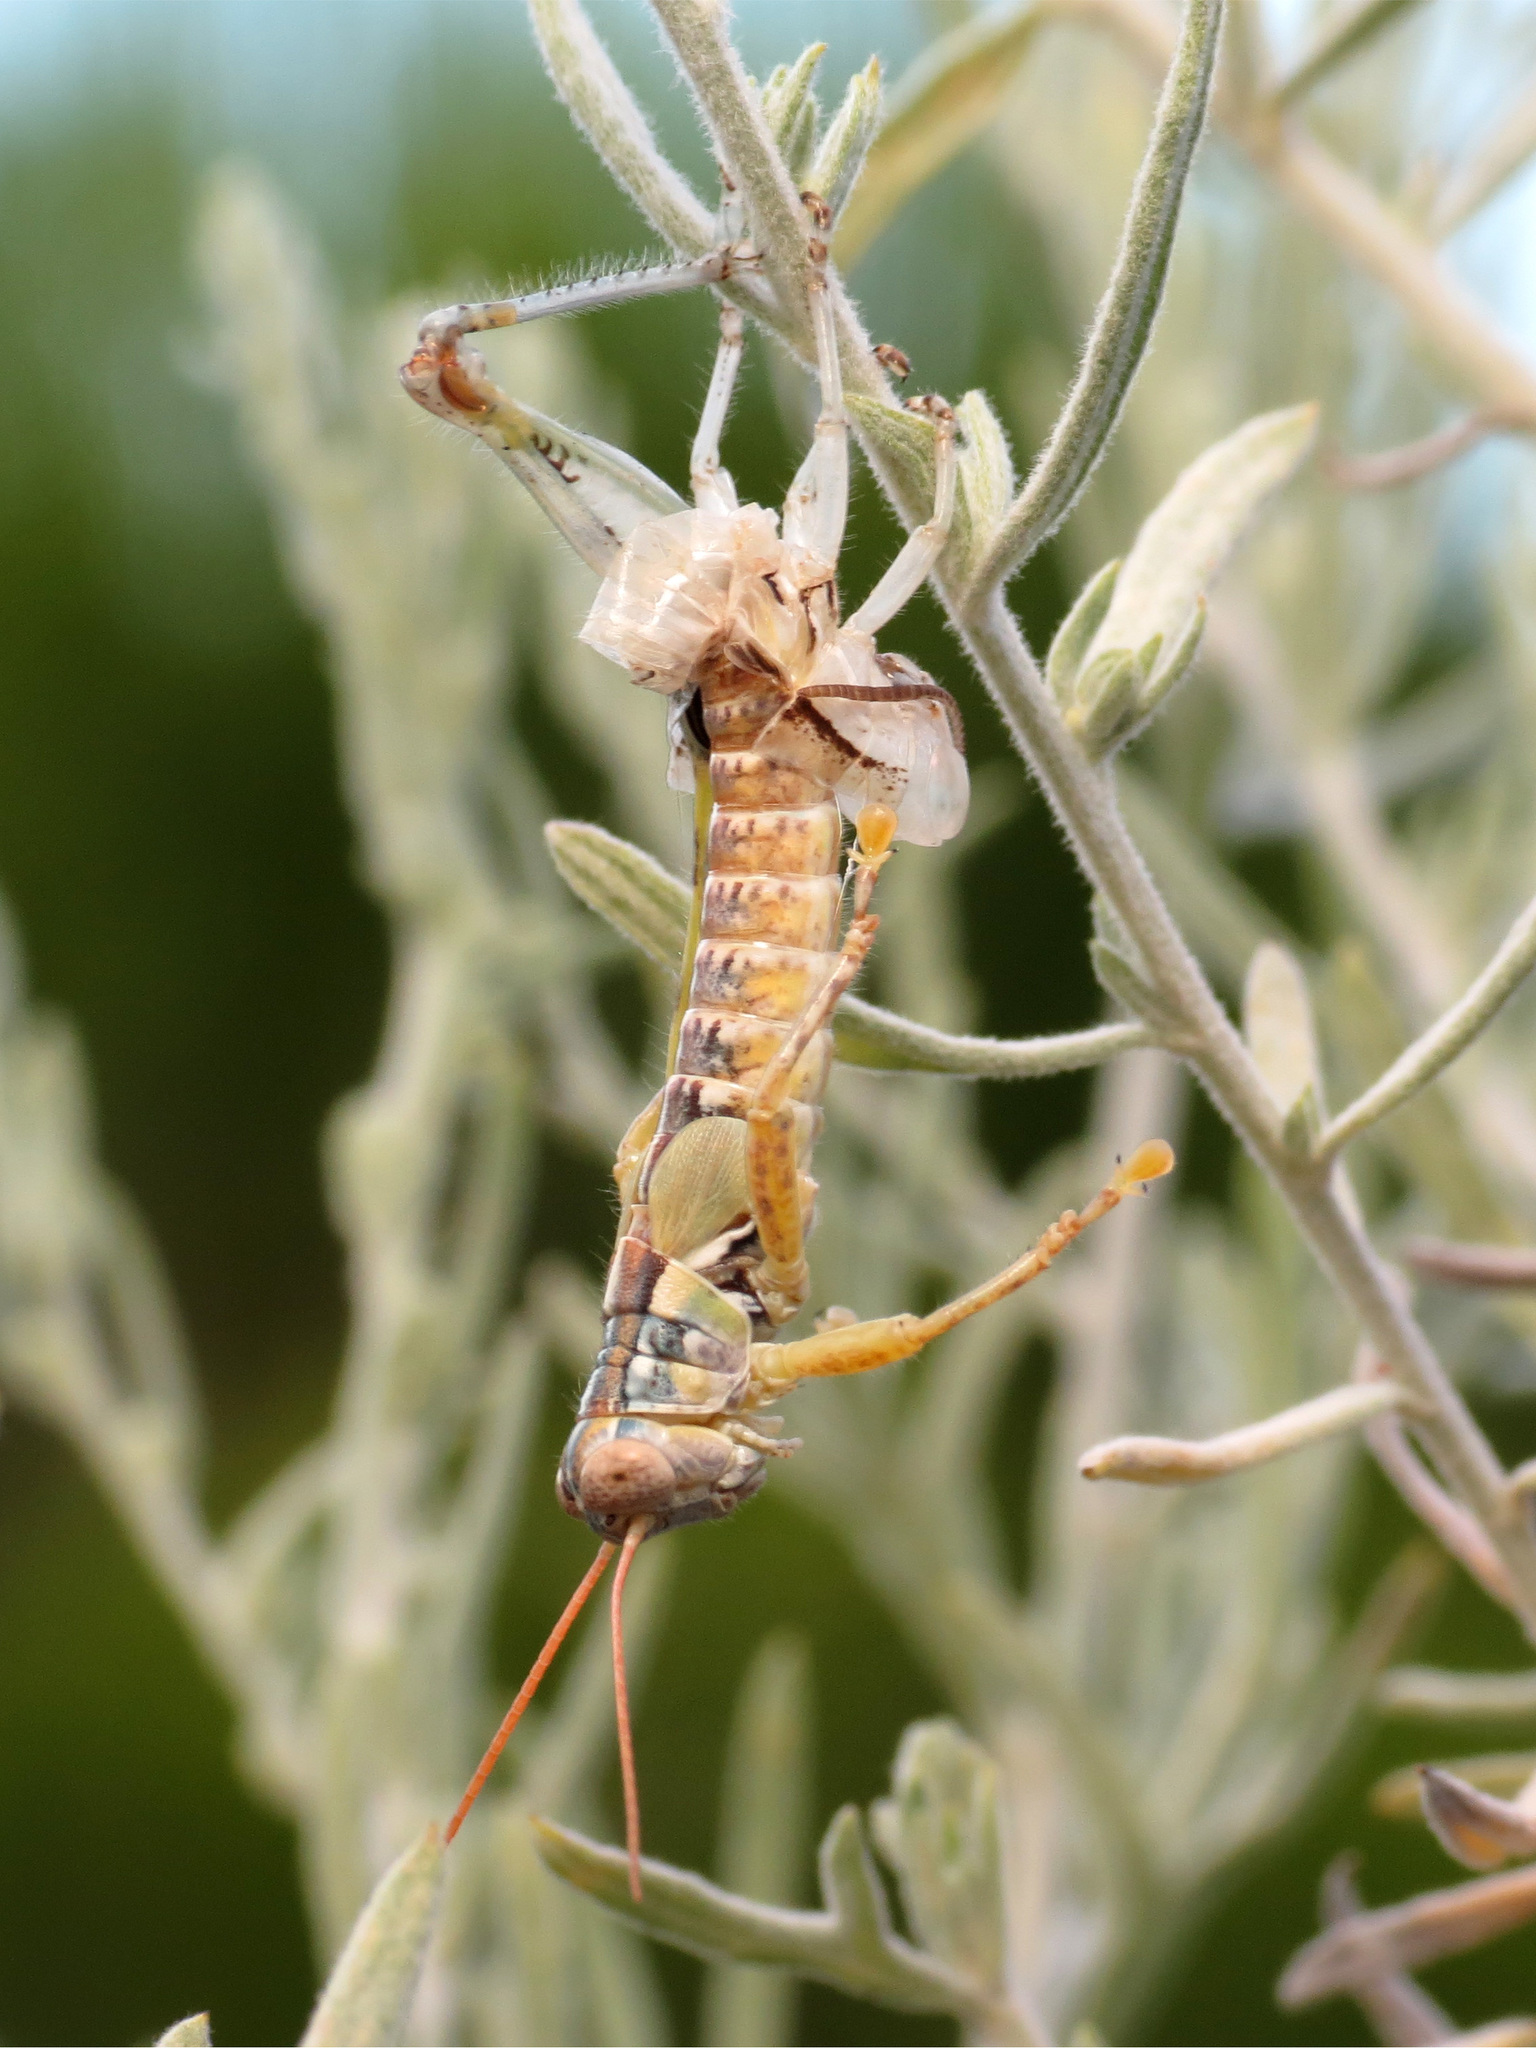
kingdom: Animalia
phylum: Arthropoda
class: Insecta
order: Orthoptera
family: Acrididae
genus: Melanoplus
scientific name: Melanoplus aridus
